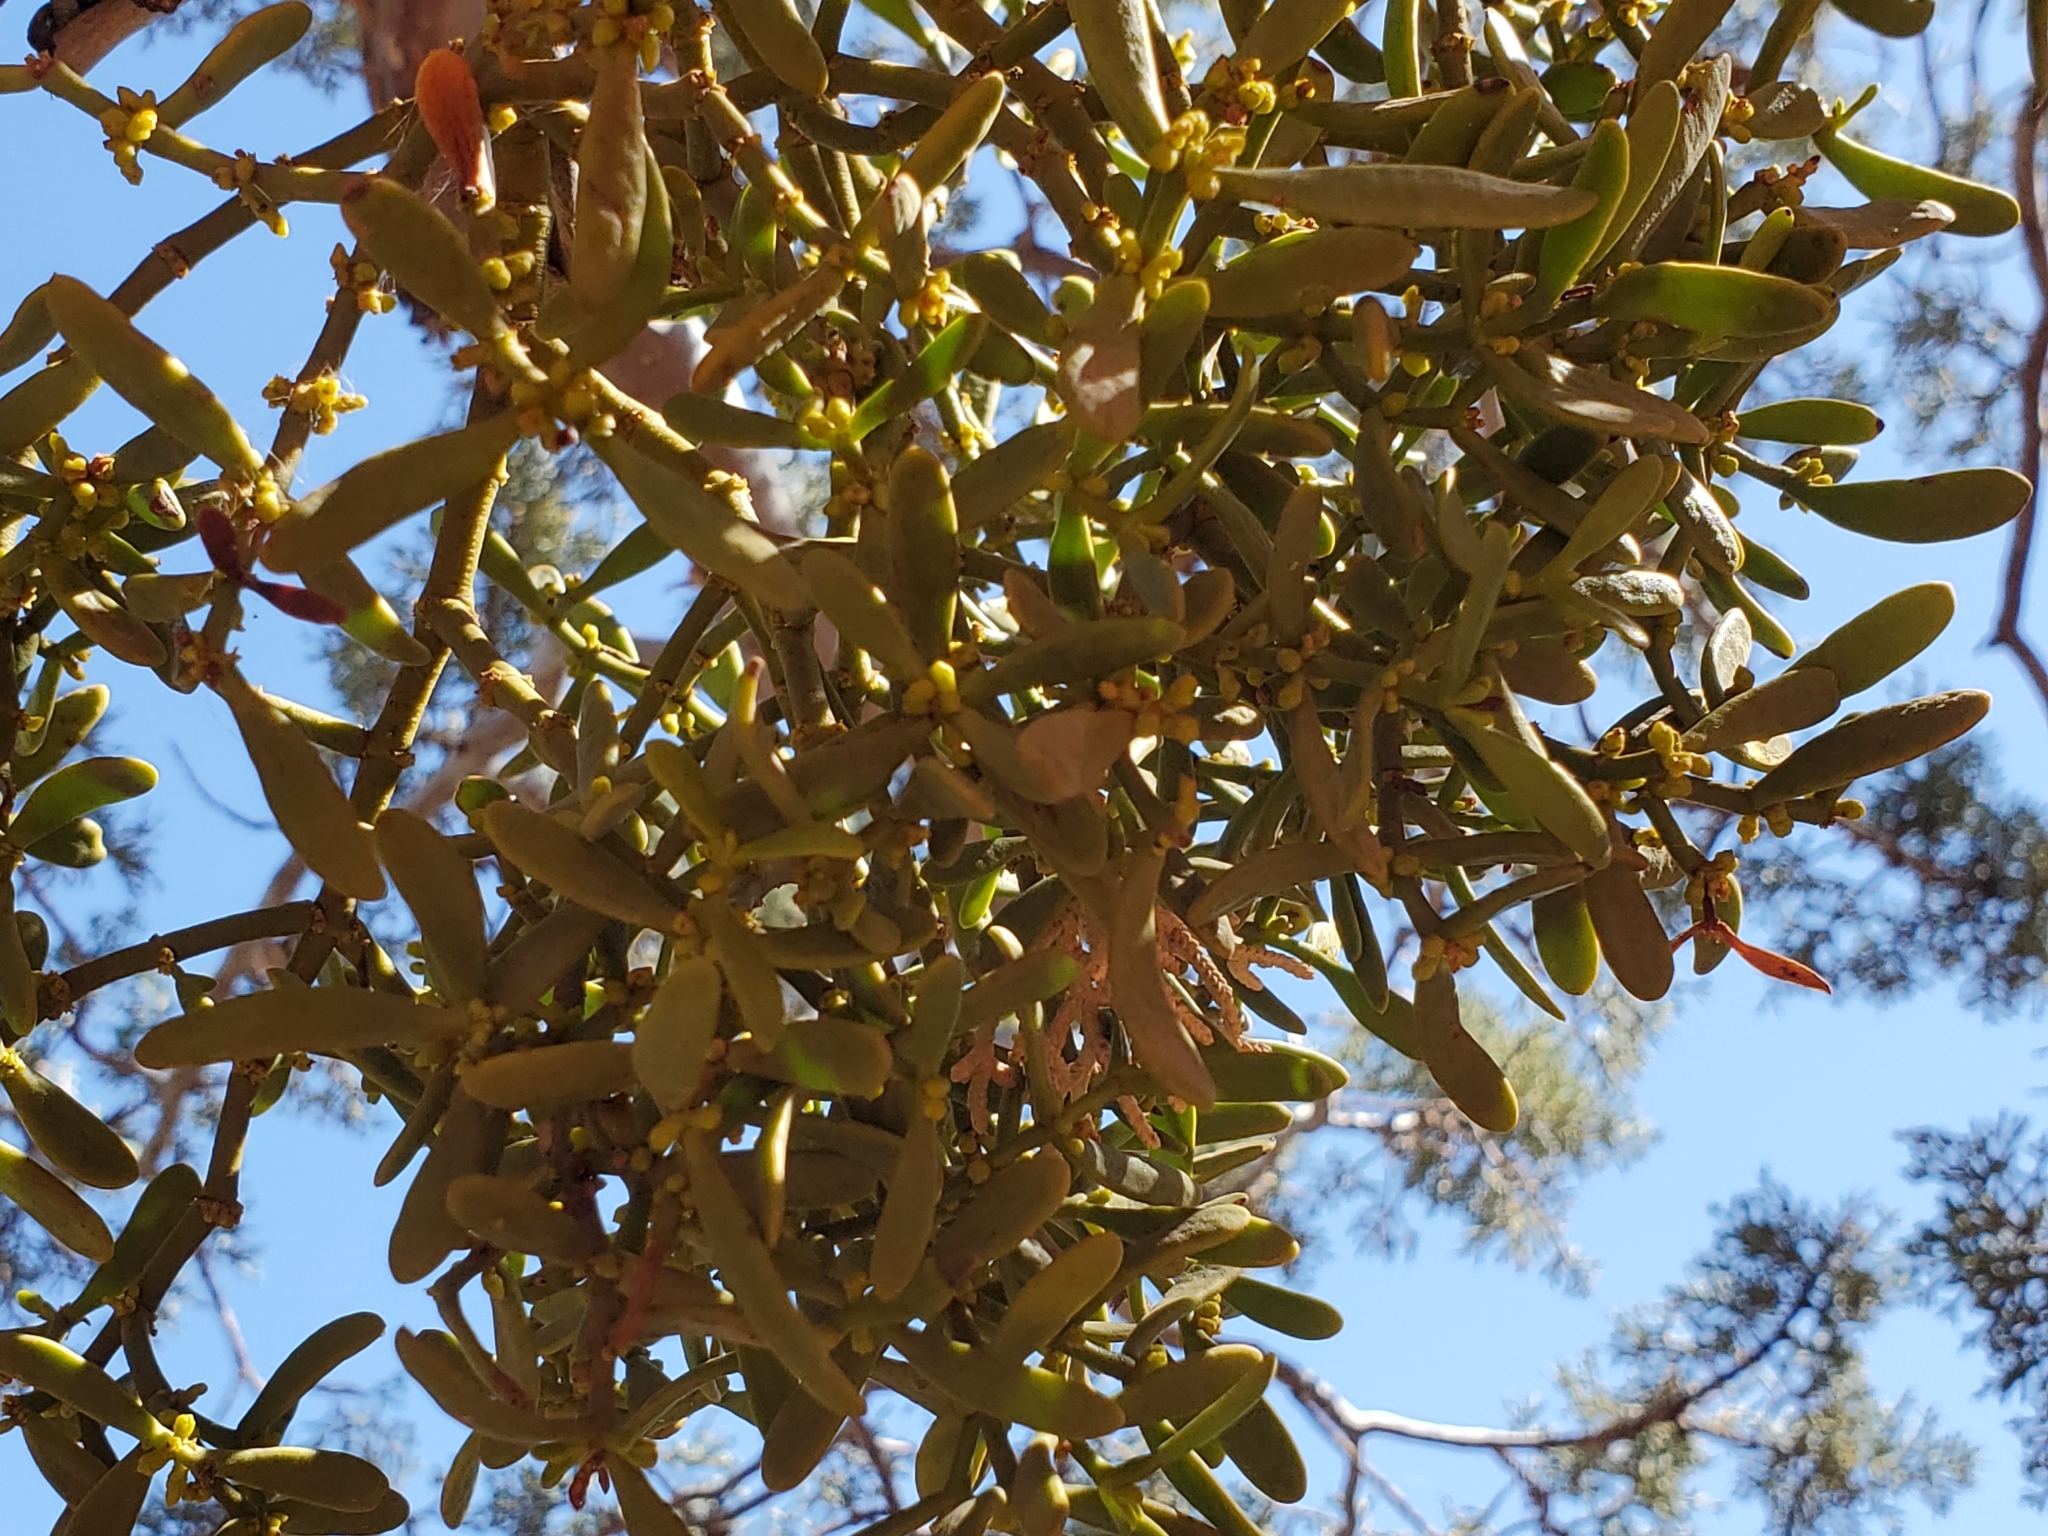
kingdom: Plantae
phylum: Tracheophyta
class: Magnoliopsida
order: Santalales
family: Viscaceae
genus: Phoradendron
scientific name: Phoradendron densum
